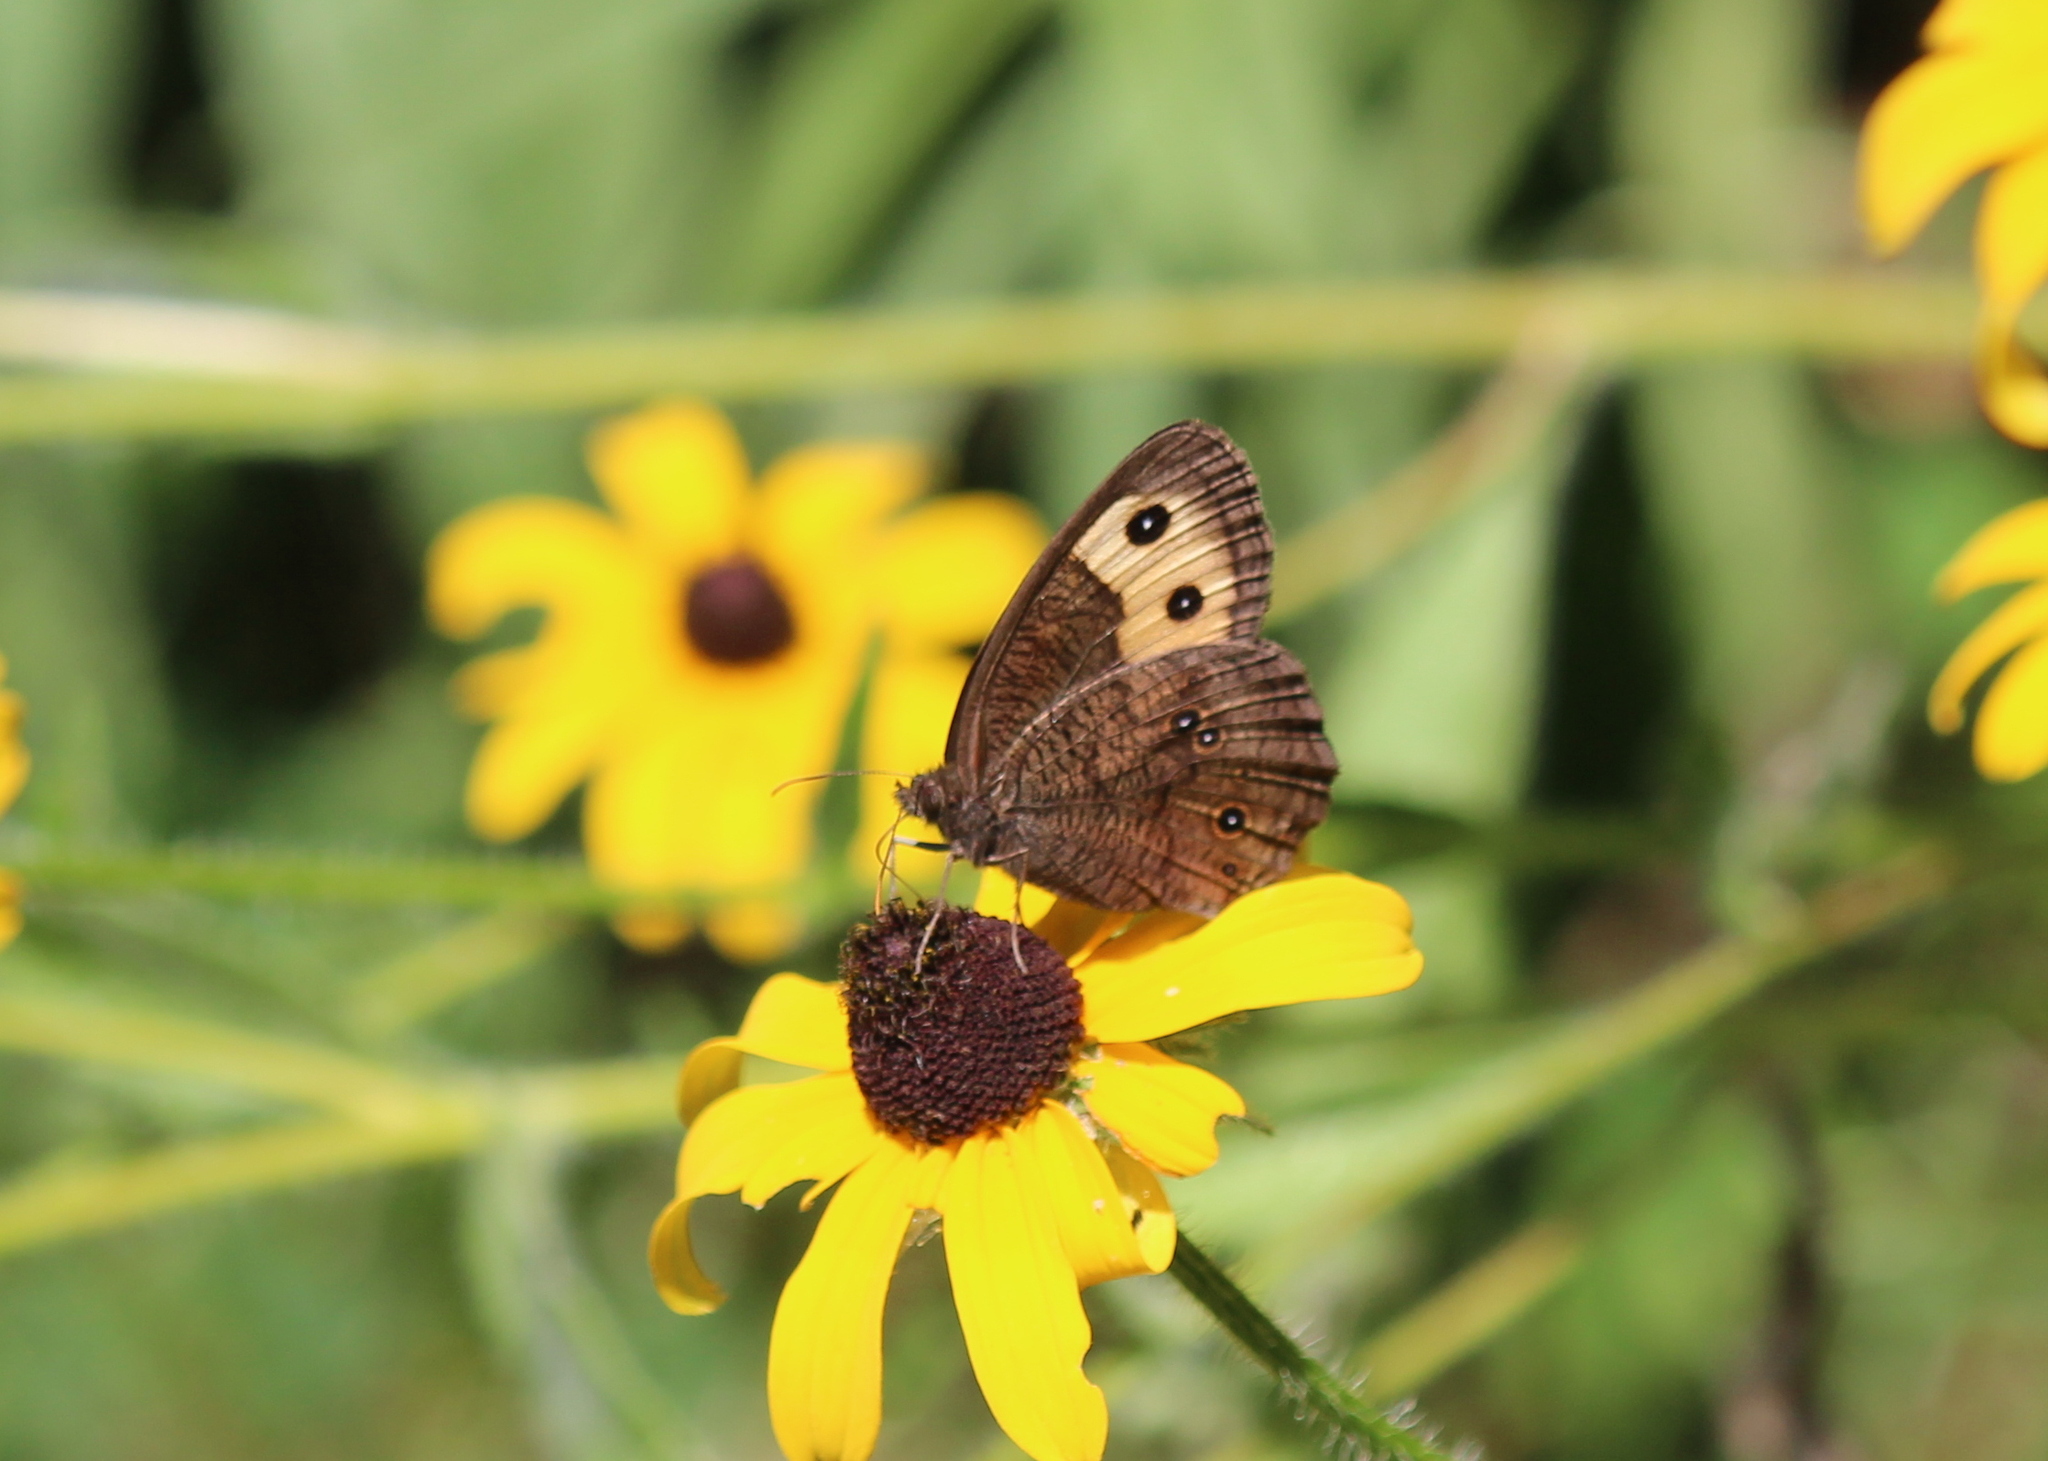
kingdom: Animalia
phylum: Arthropoda
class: Insecta
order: Lepidoptera
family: Nymphalidae
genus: Cercyonis
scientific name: Cercyonis pegala
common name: Common wood-nymph
